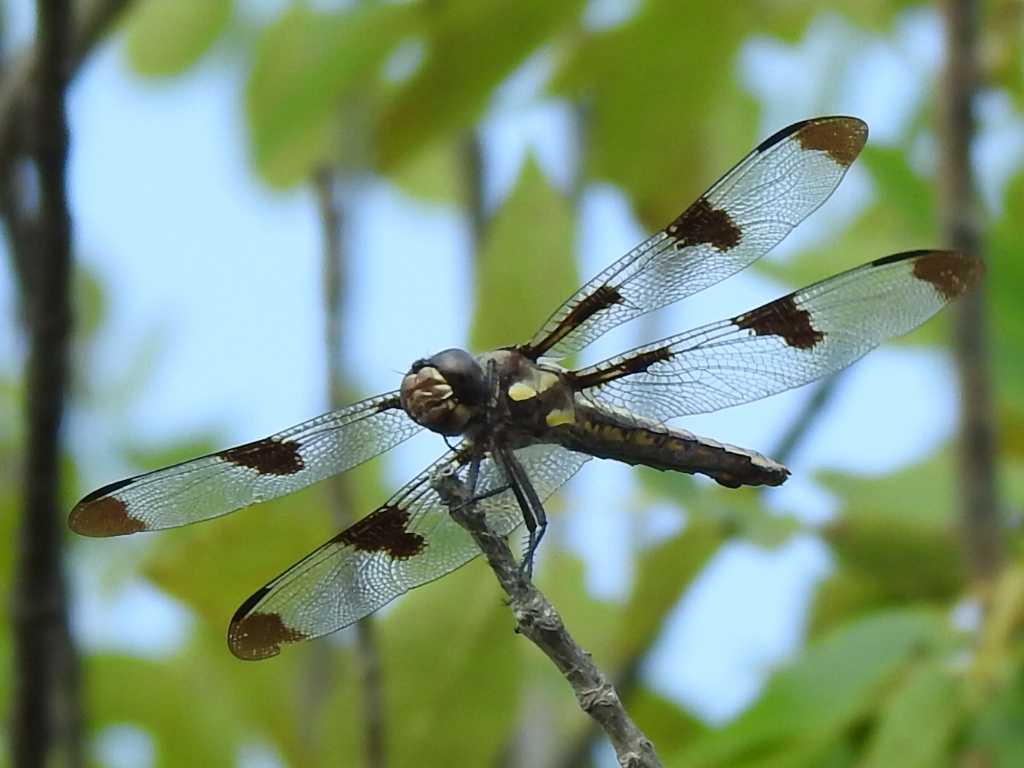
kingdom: Animalia
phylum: Arthropoda
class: Insecta
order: Odonata
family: Libellulidae
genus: Libellula
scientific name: Libellula pulchella
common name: Twelve-spotted skimmer
